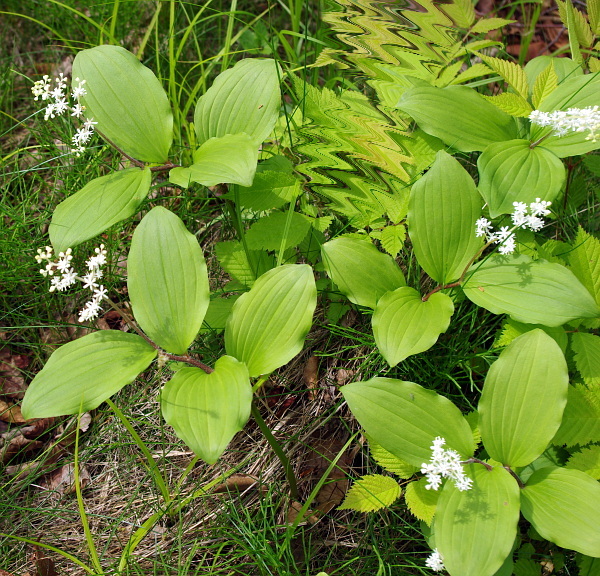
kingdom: Plantae
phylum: Tracheophyta
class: Liliopsida
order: Asparagales
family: Asparagaceae
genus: Maianthemum
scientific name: Maianthemum japonicum
